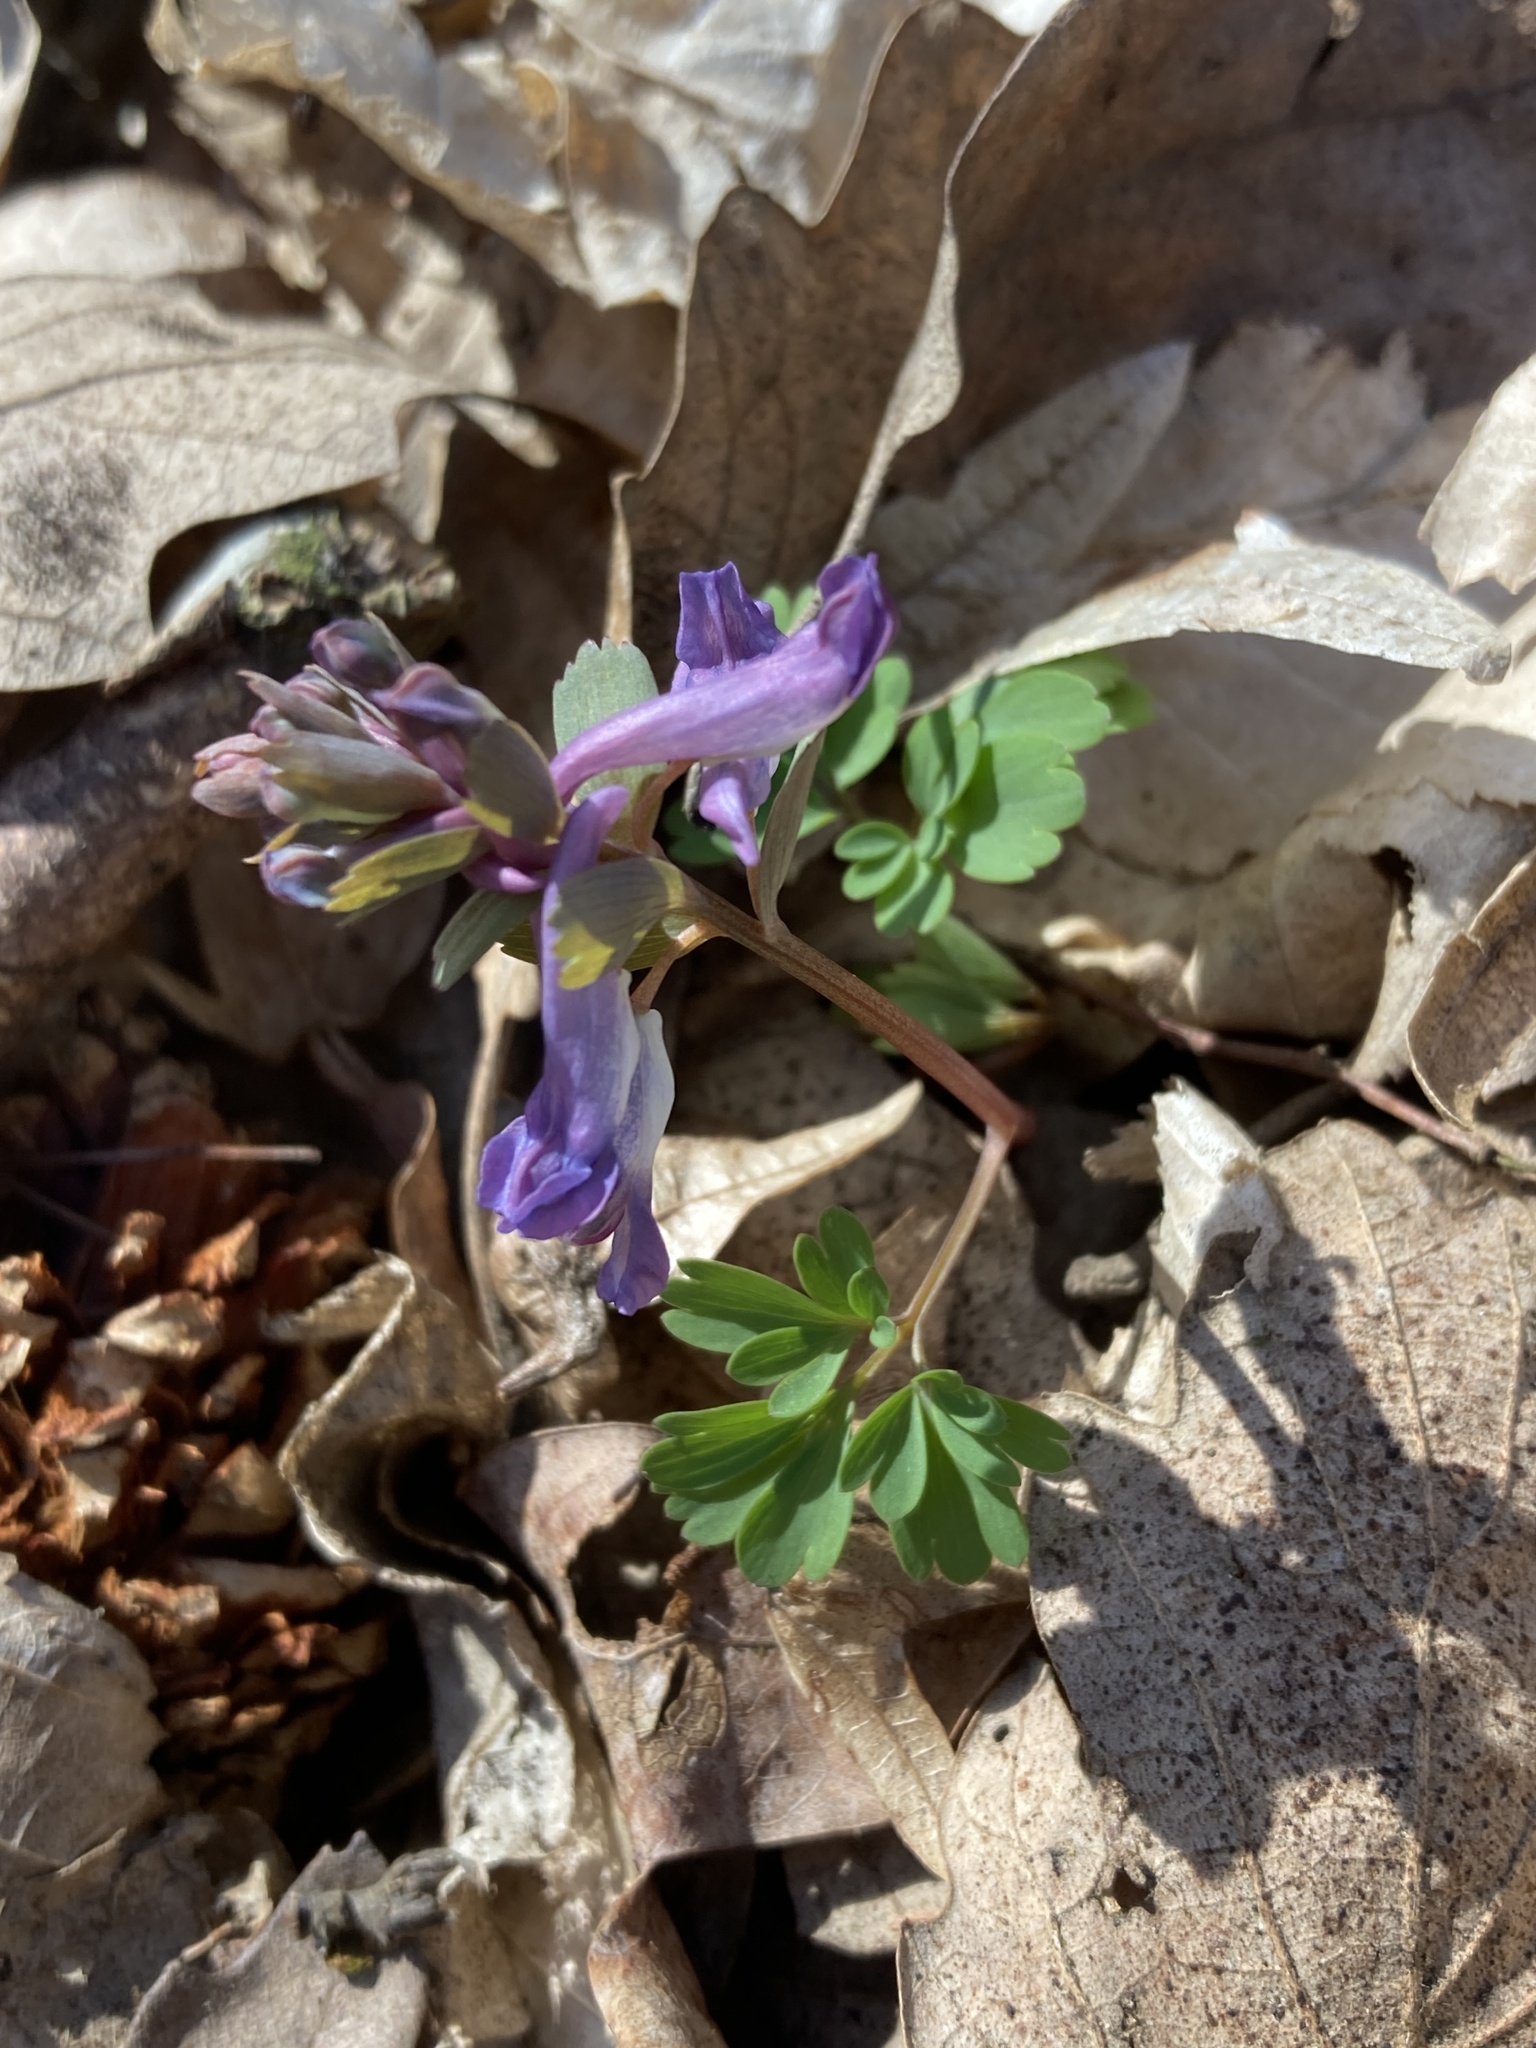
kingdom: Plantae
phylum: Tracheophyta
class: Magnoliopsida
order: Ranunculales
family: Papaveraceae
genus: Corydalis
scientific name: Corydalis solida
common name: Bird-in-a-bush
